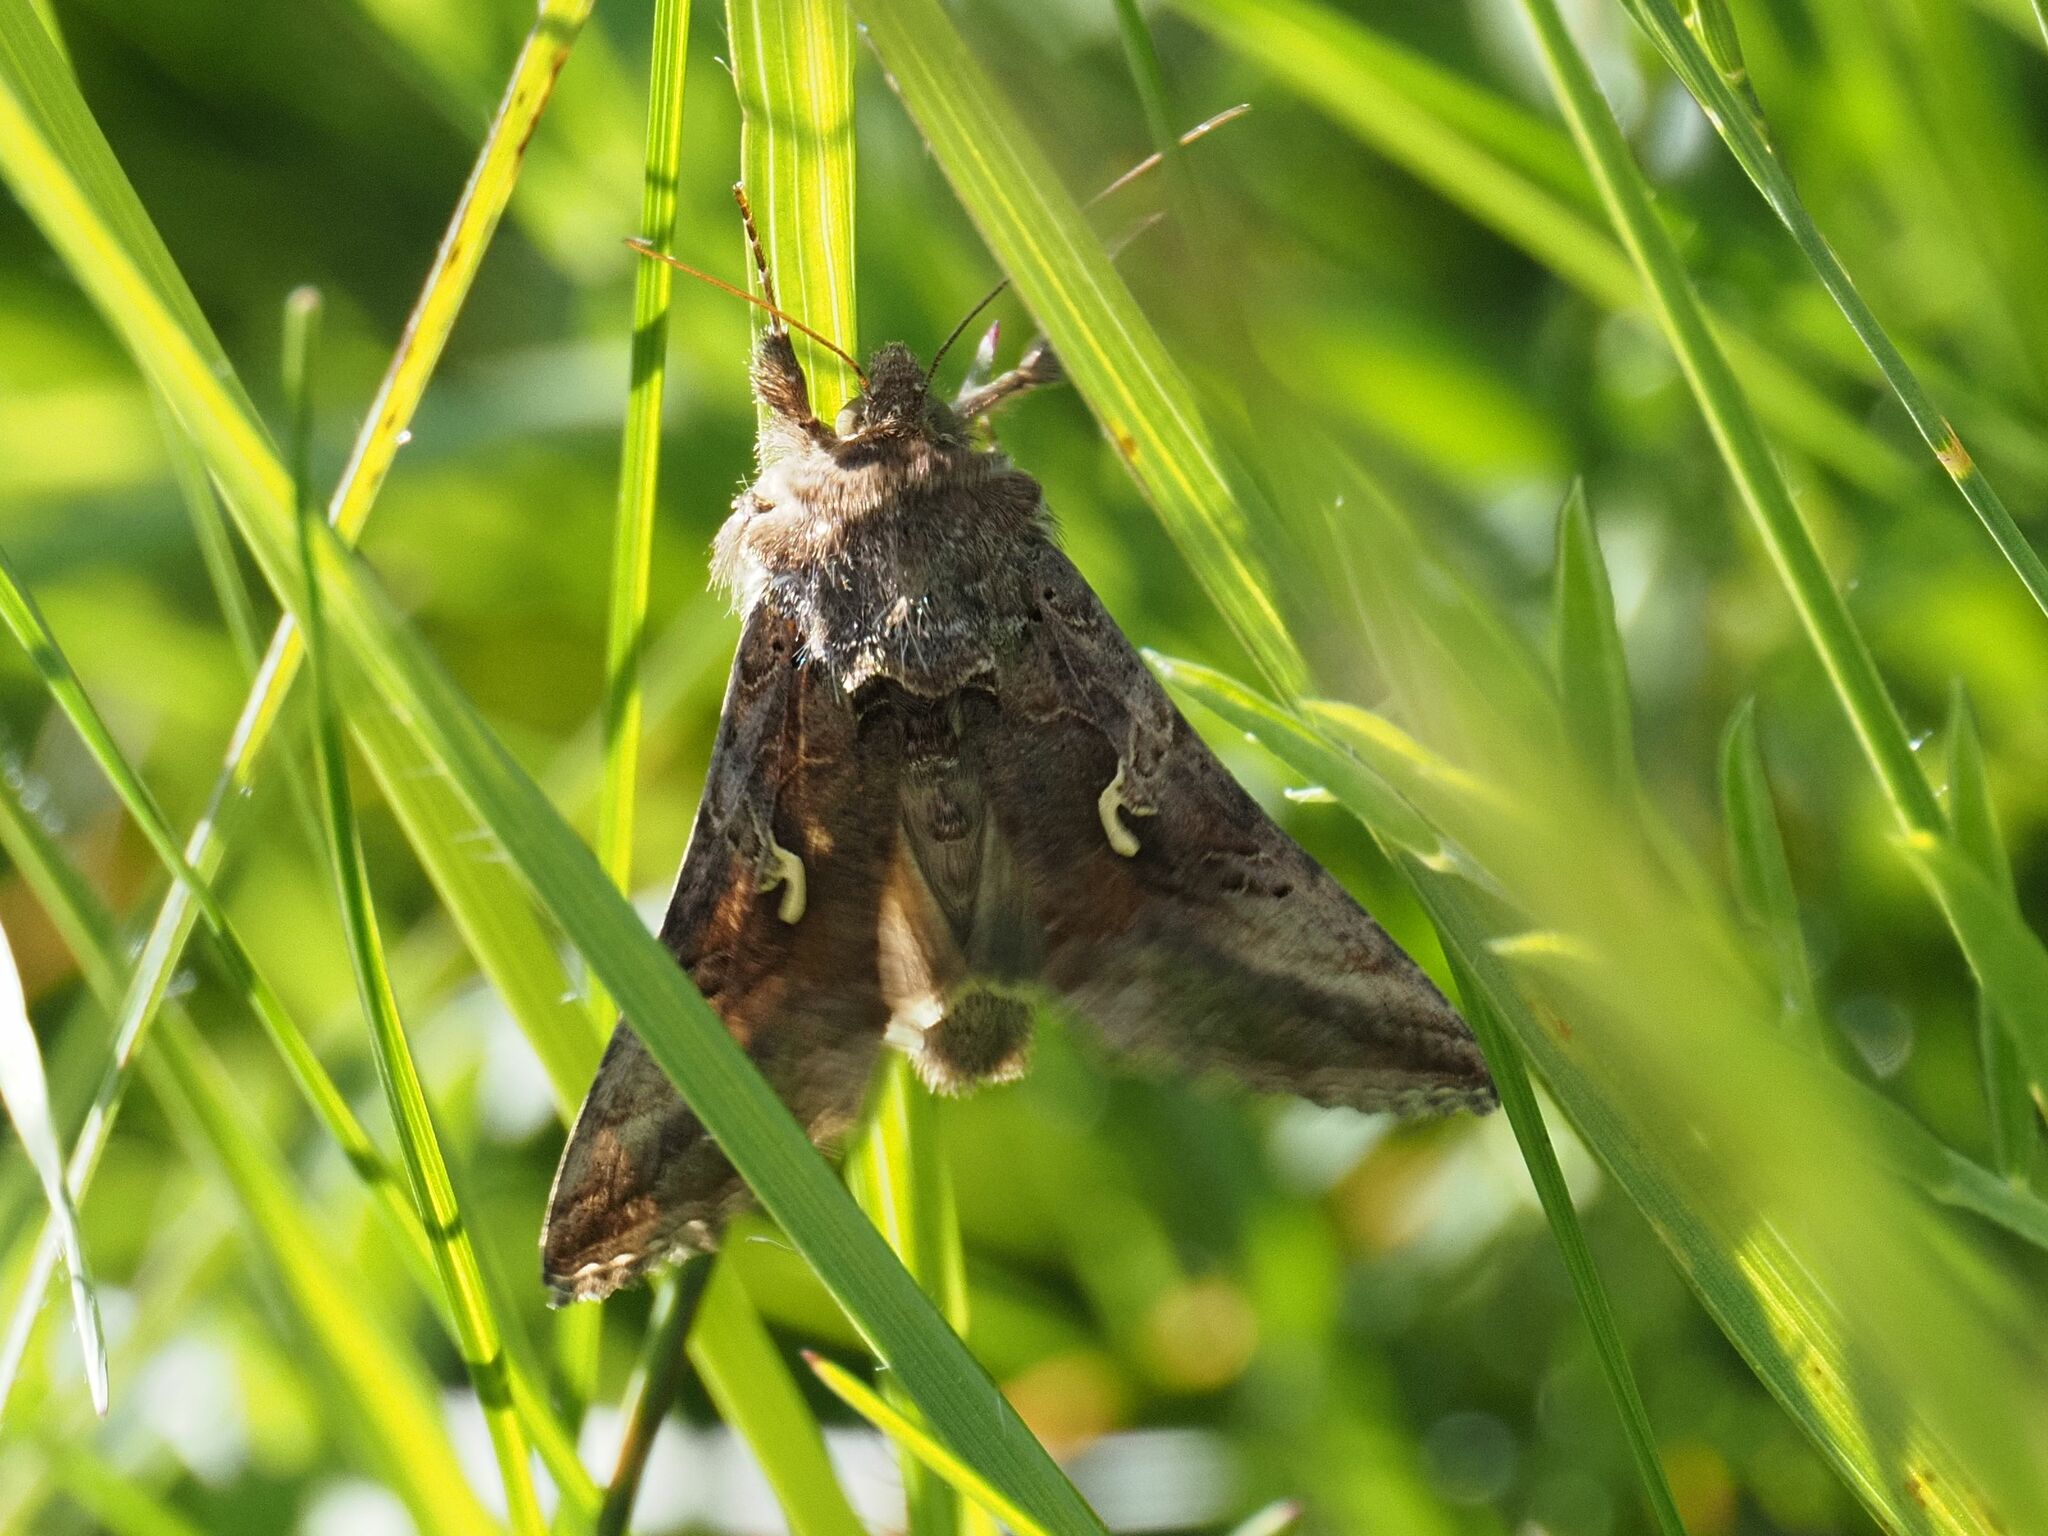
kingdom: Animalia
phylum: Arthropoda
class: Insecta
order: Lepidoptera
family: Noctuidae
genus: Autographa
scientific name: Autographa gamma
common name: Silver y
